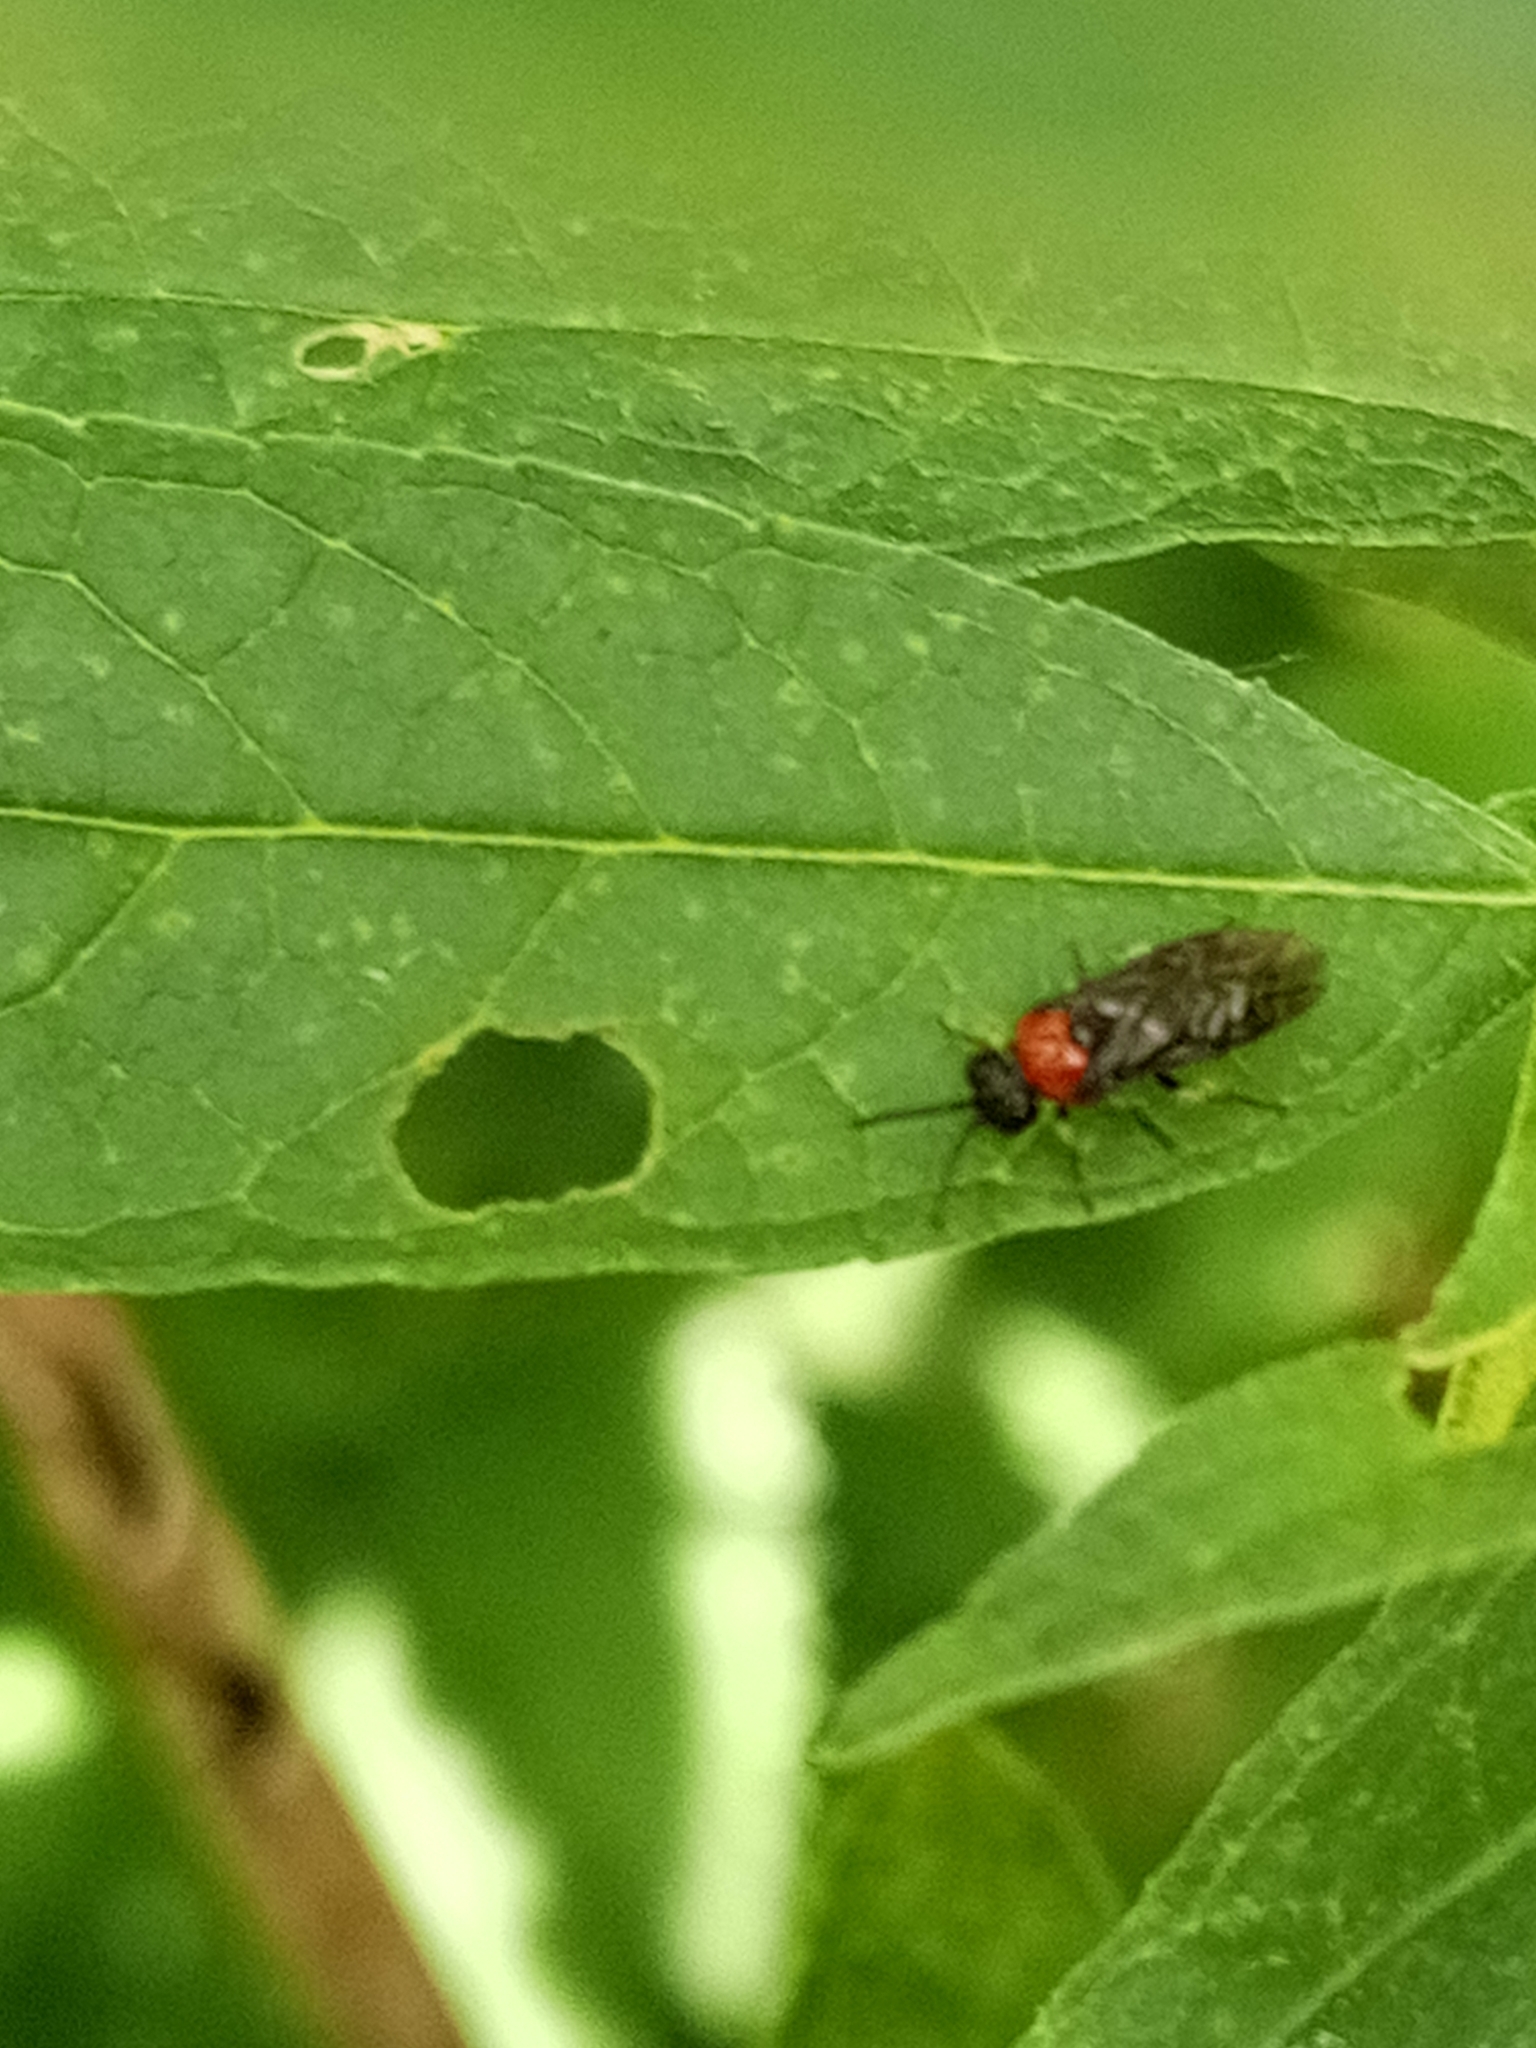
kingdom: Animalia
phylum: Arthropoda
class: Insecta
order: Hymenoptera
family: Tenthredinidae
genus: Eutomostethus
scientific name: Eutomostethus ephippium
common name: Tenthredid wasp
